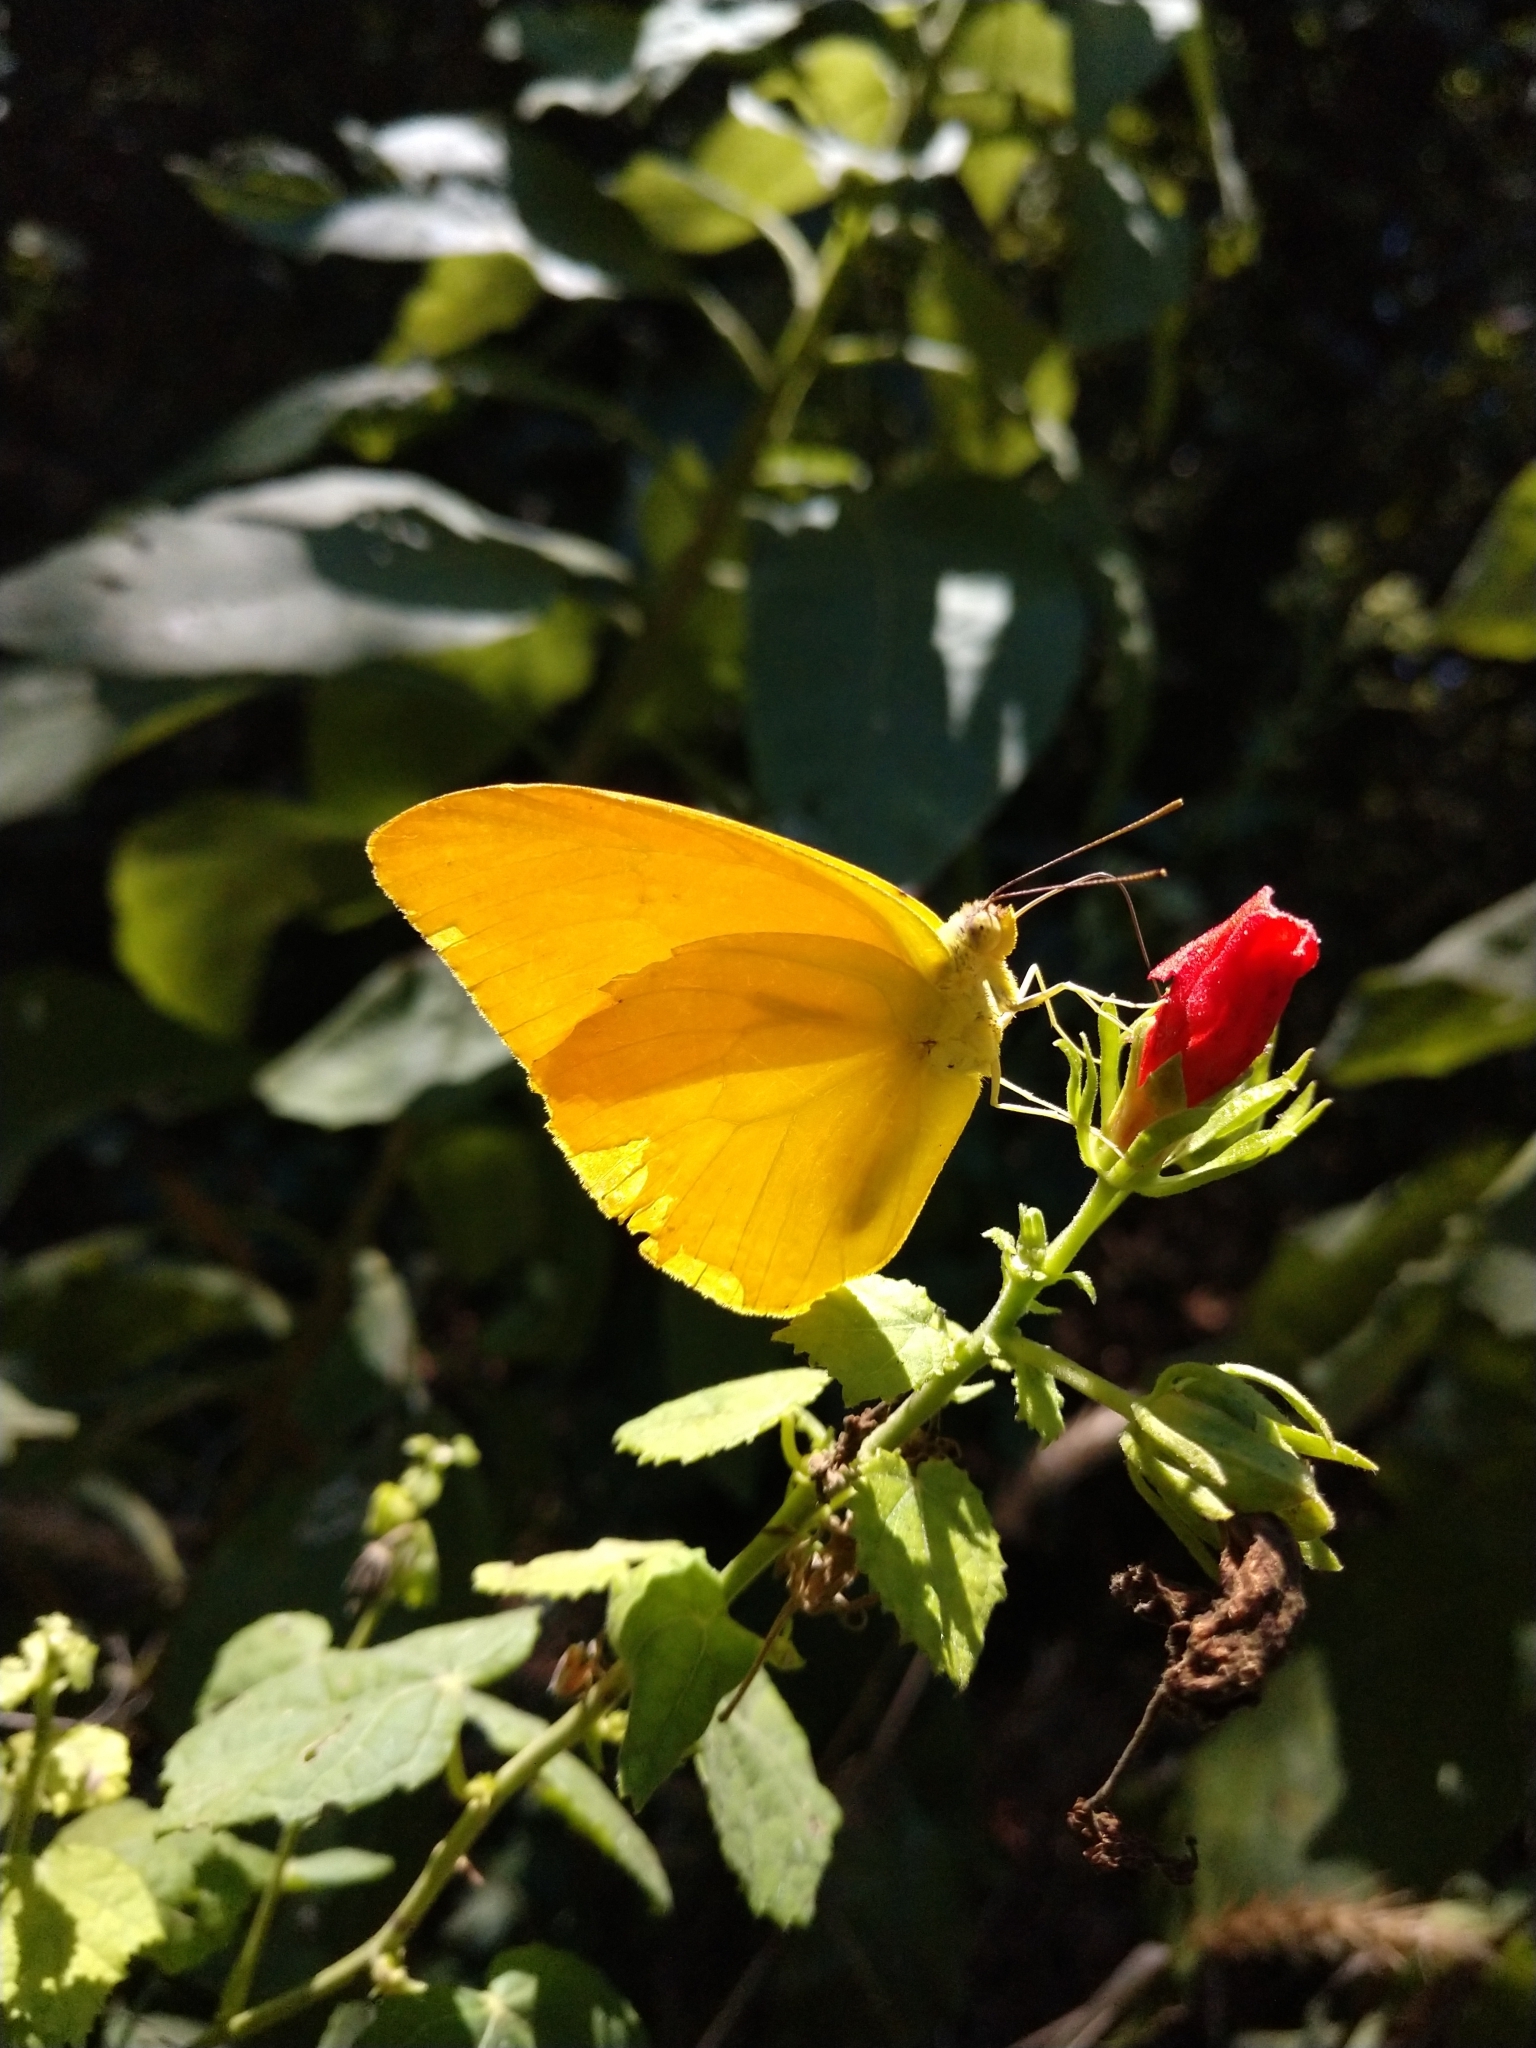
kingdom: Animalia
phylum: Arthropoda
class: Insecta
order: Lepidoptera
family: Pieridae
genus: Phoebis
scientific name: Phoebis agarithe
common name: Large orange sulphur
